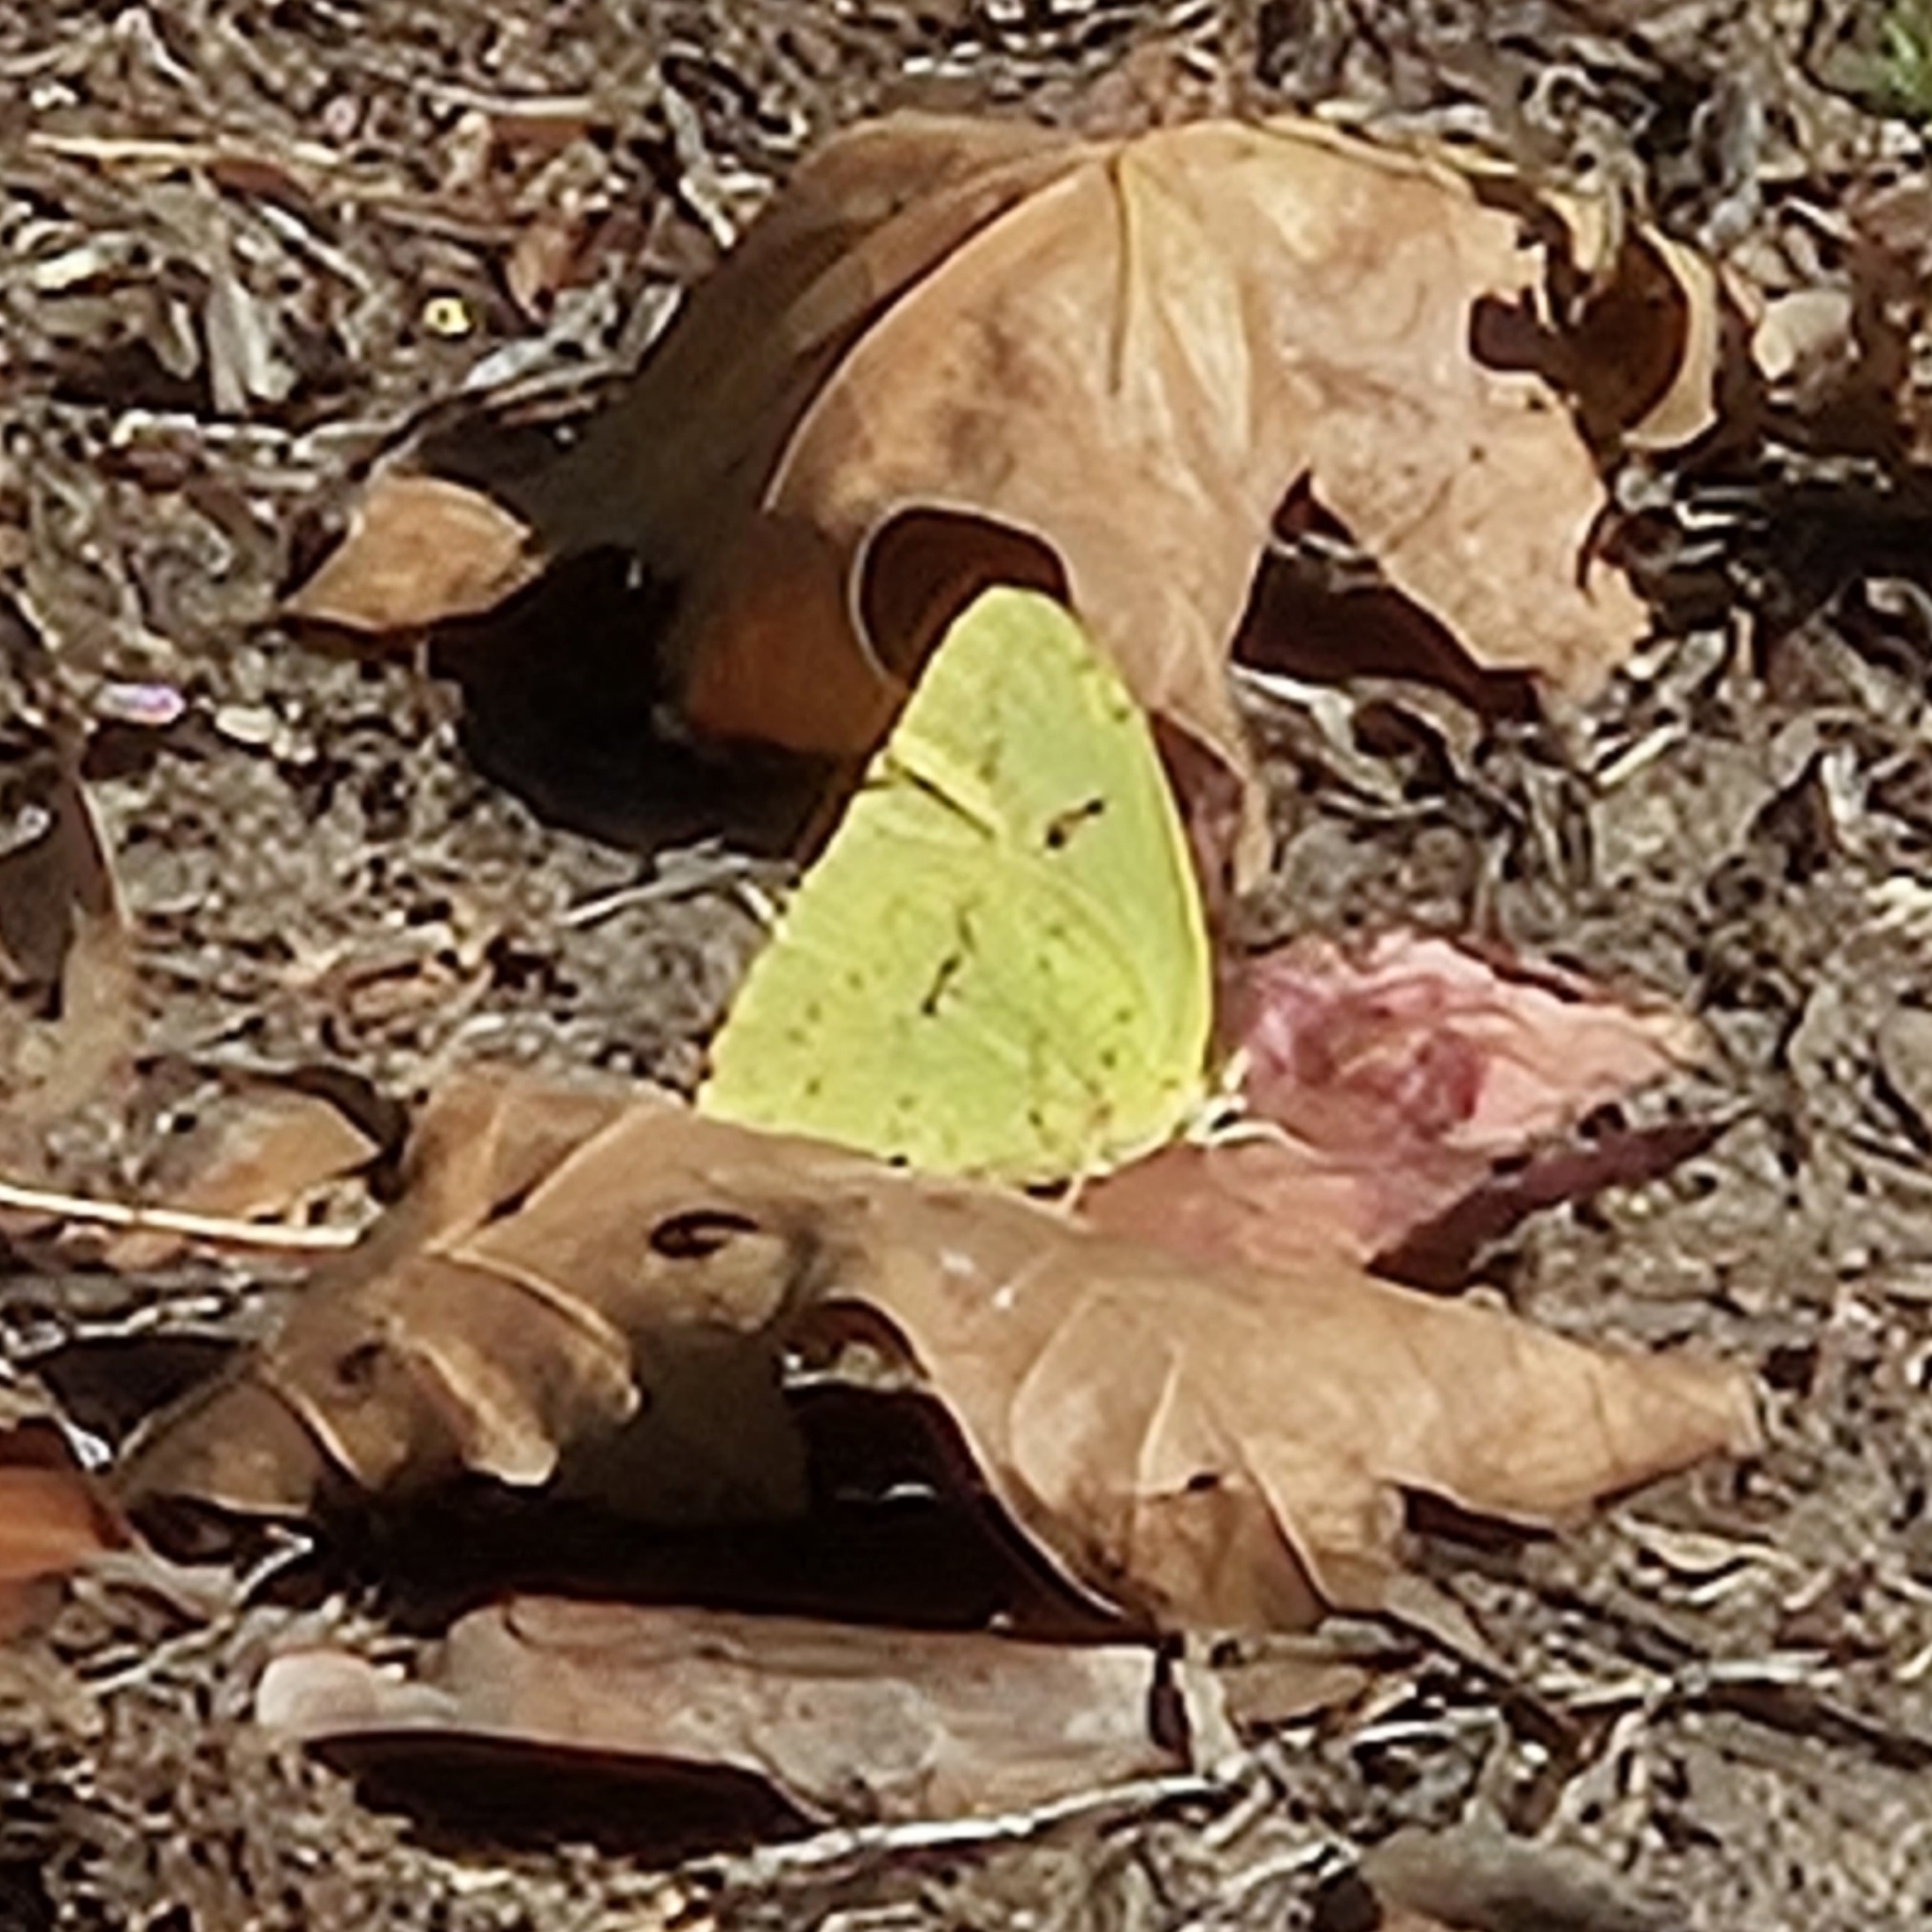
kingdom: Animalia
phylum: Arthropoda
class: Insecta
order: Lepidoptera
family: Pieridae
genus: Phoebis
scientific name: Phoebis sennae
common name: Cloudless sulphur
